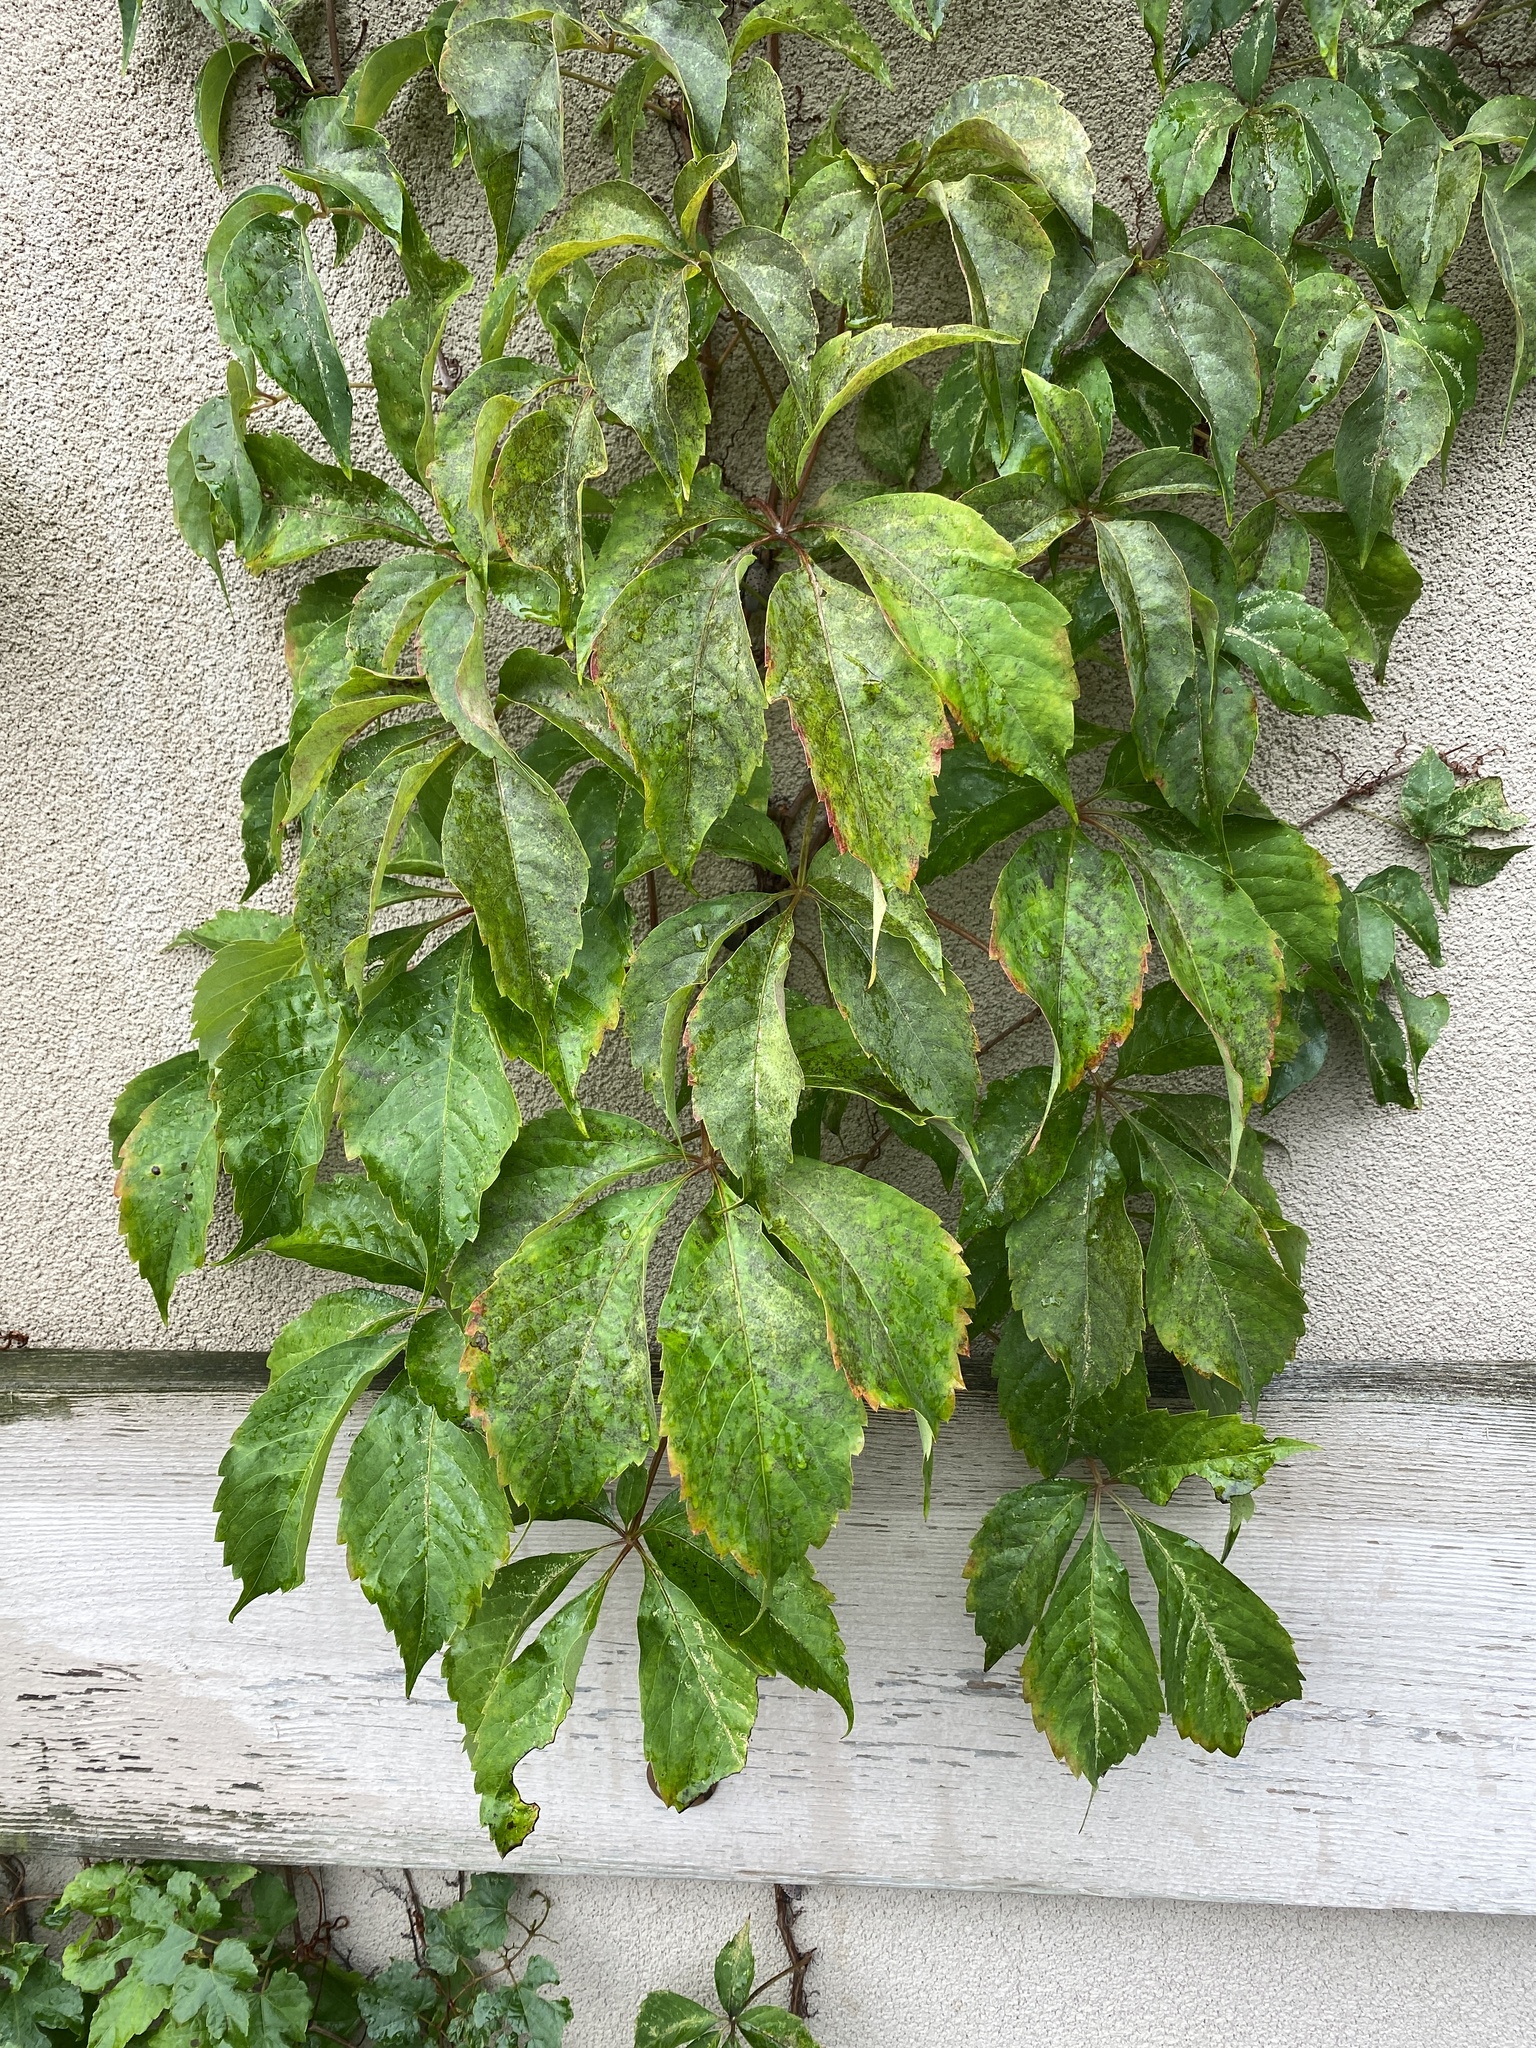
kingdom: Plantae
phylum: Tracheophyta
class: Magnoliopsida
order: Vitales
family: Vitaceae
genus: Parthenocissus
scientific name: Parthenocissus quinquefolia
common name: Virginia-creeper
